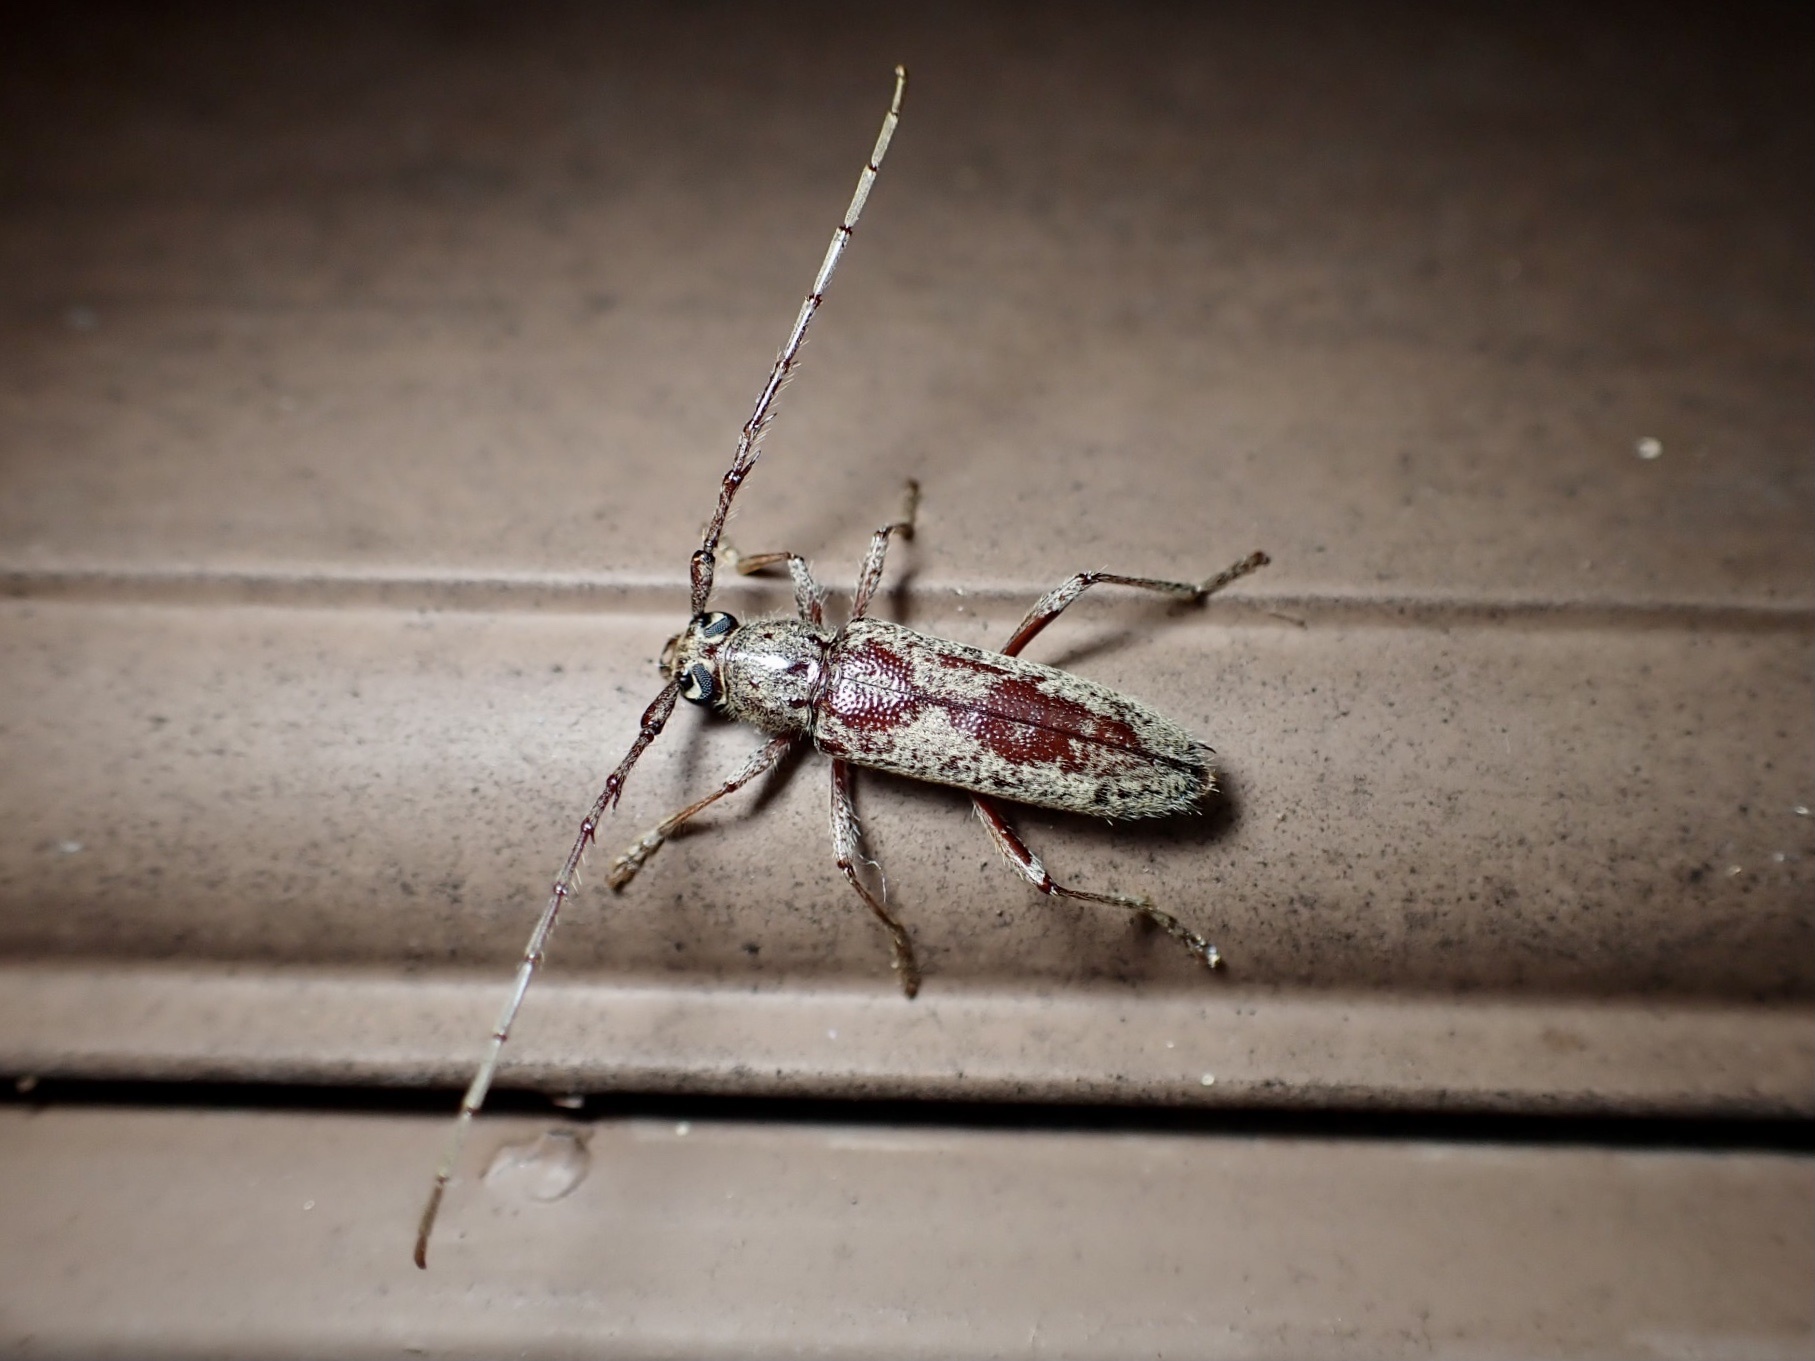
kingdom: Animalia
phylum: Arthropoda
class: Insecta
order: Coleoptera
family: Cerambycidae
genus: Elaphidion
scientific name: Elaphidion mucronatum
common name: Spined oak borer
